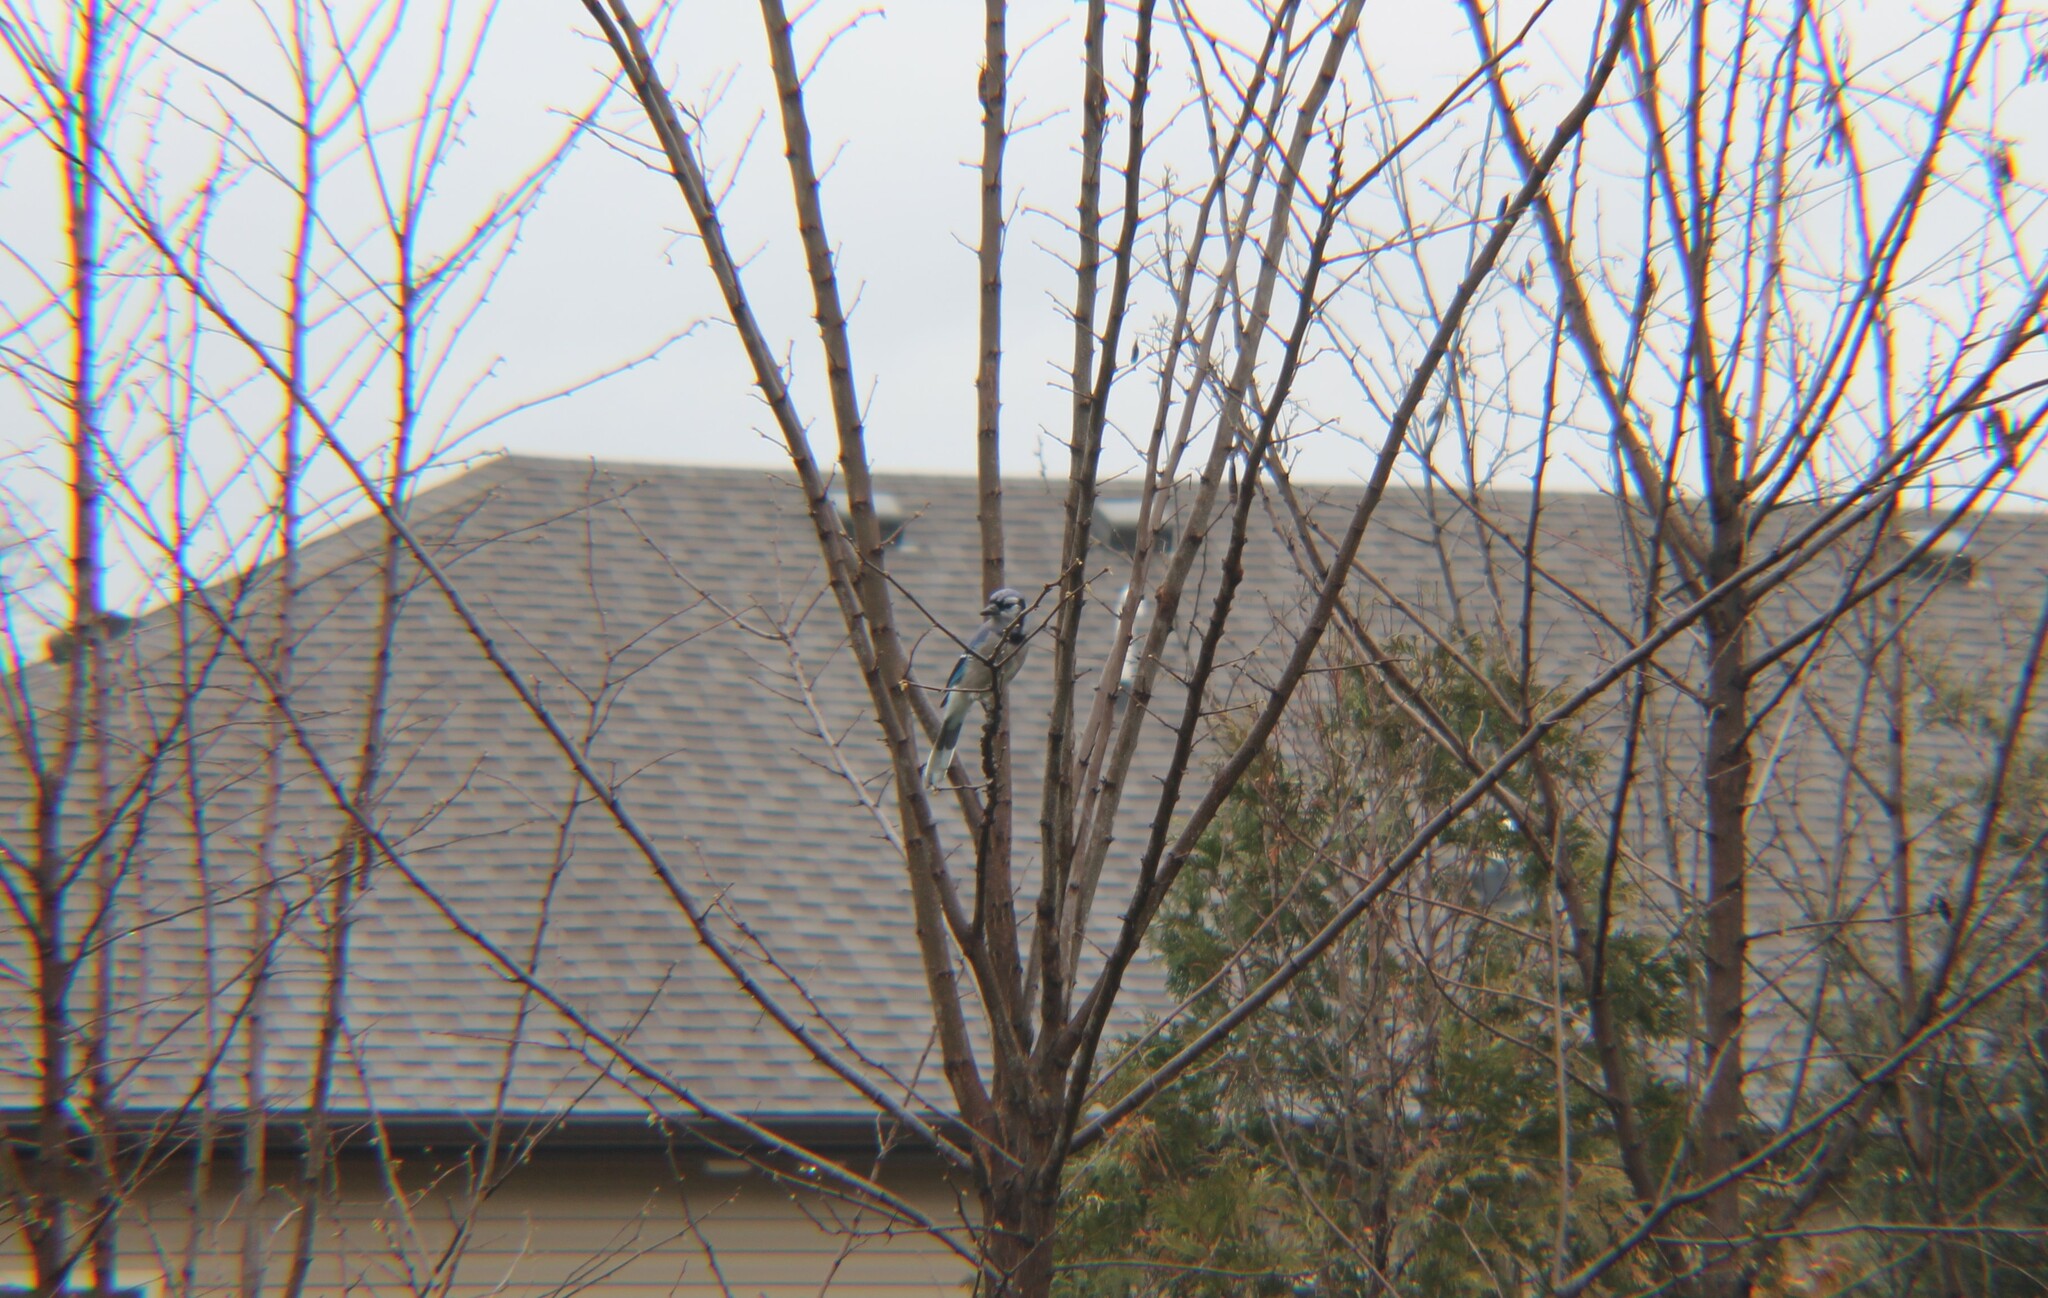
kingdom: Animalia
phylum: Chordata
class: Aves
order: Passeriformes
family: Corvidae
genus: Cyanocitta
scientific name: Cyanocitta cristata
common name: Blue jay
